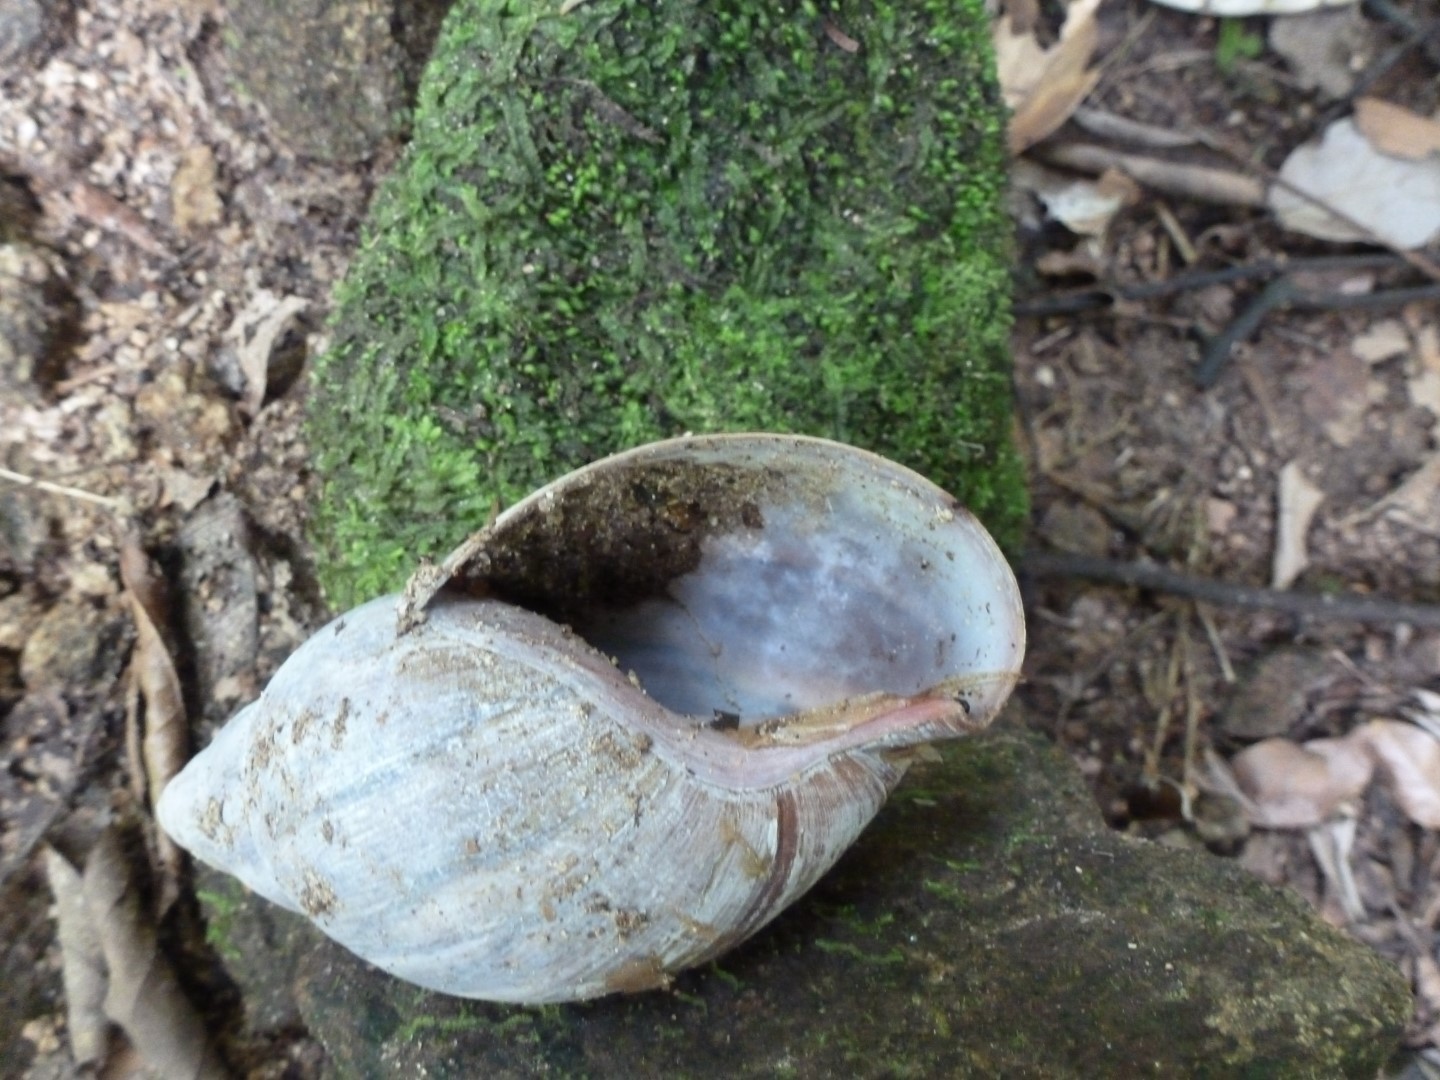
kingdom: Animalia
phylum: Mollusca
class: Gastropoda
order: Stylommatophora
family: Achatinidae
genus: Lissachatina
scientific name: Lissachatina immaculata
